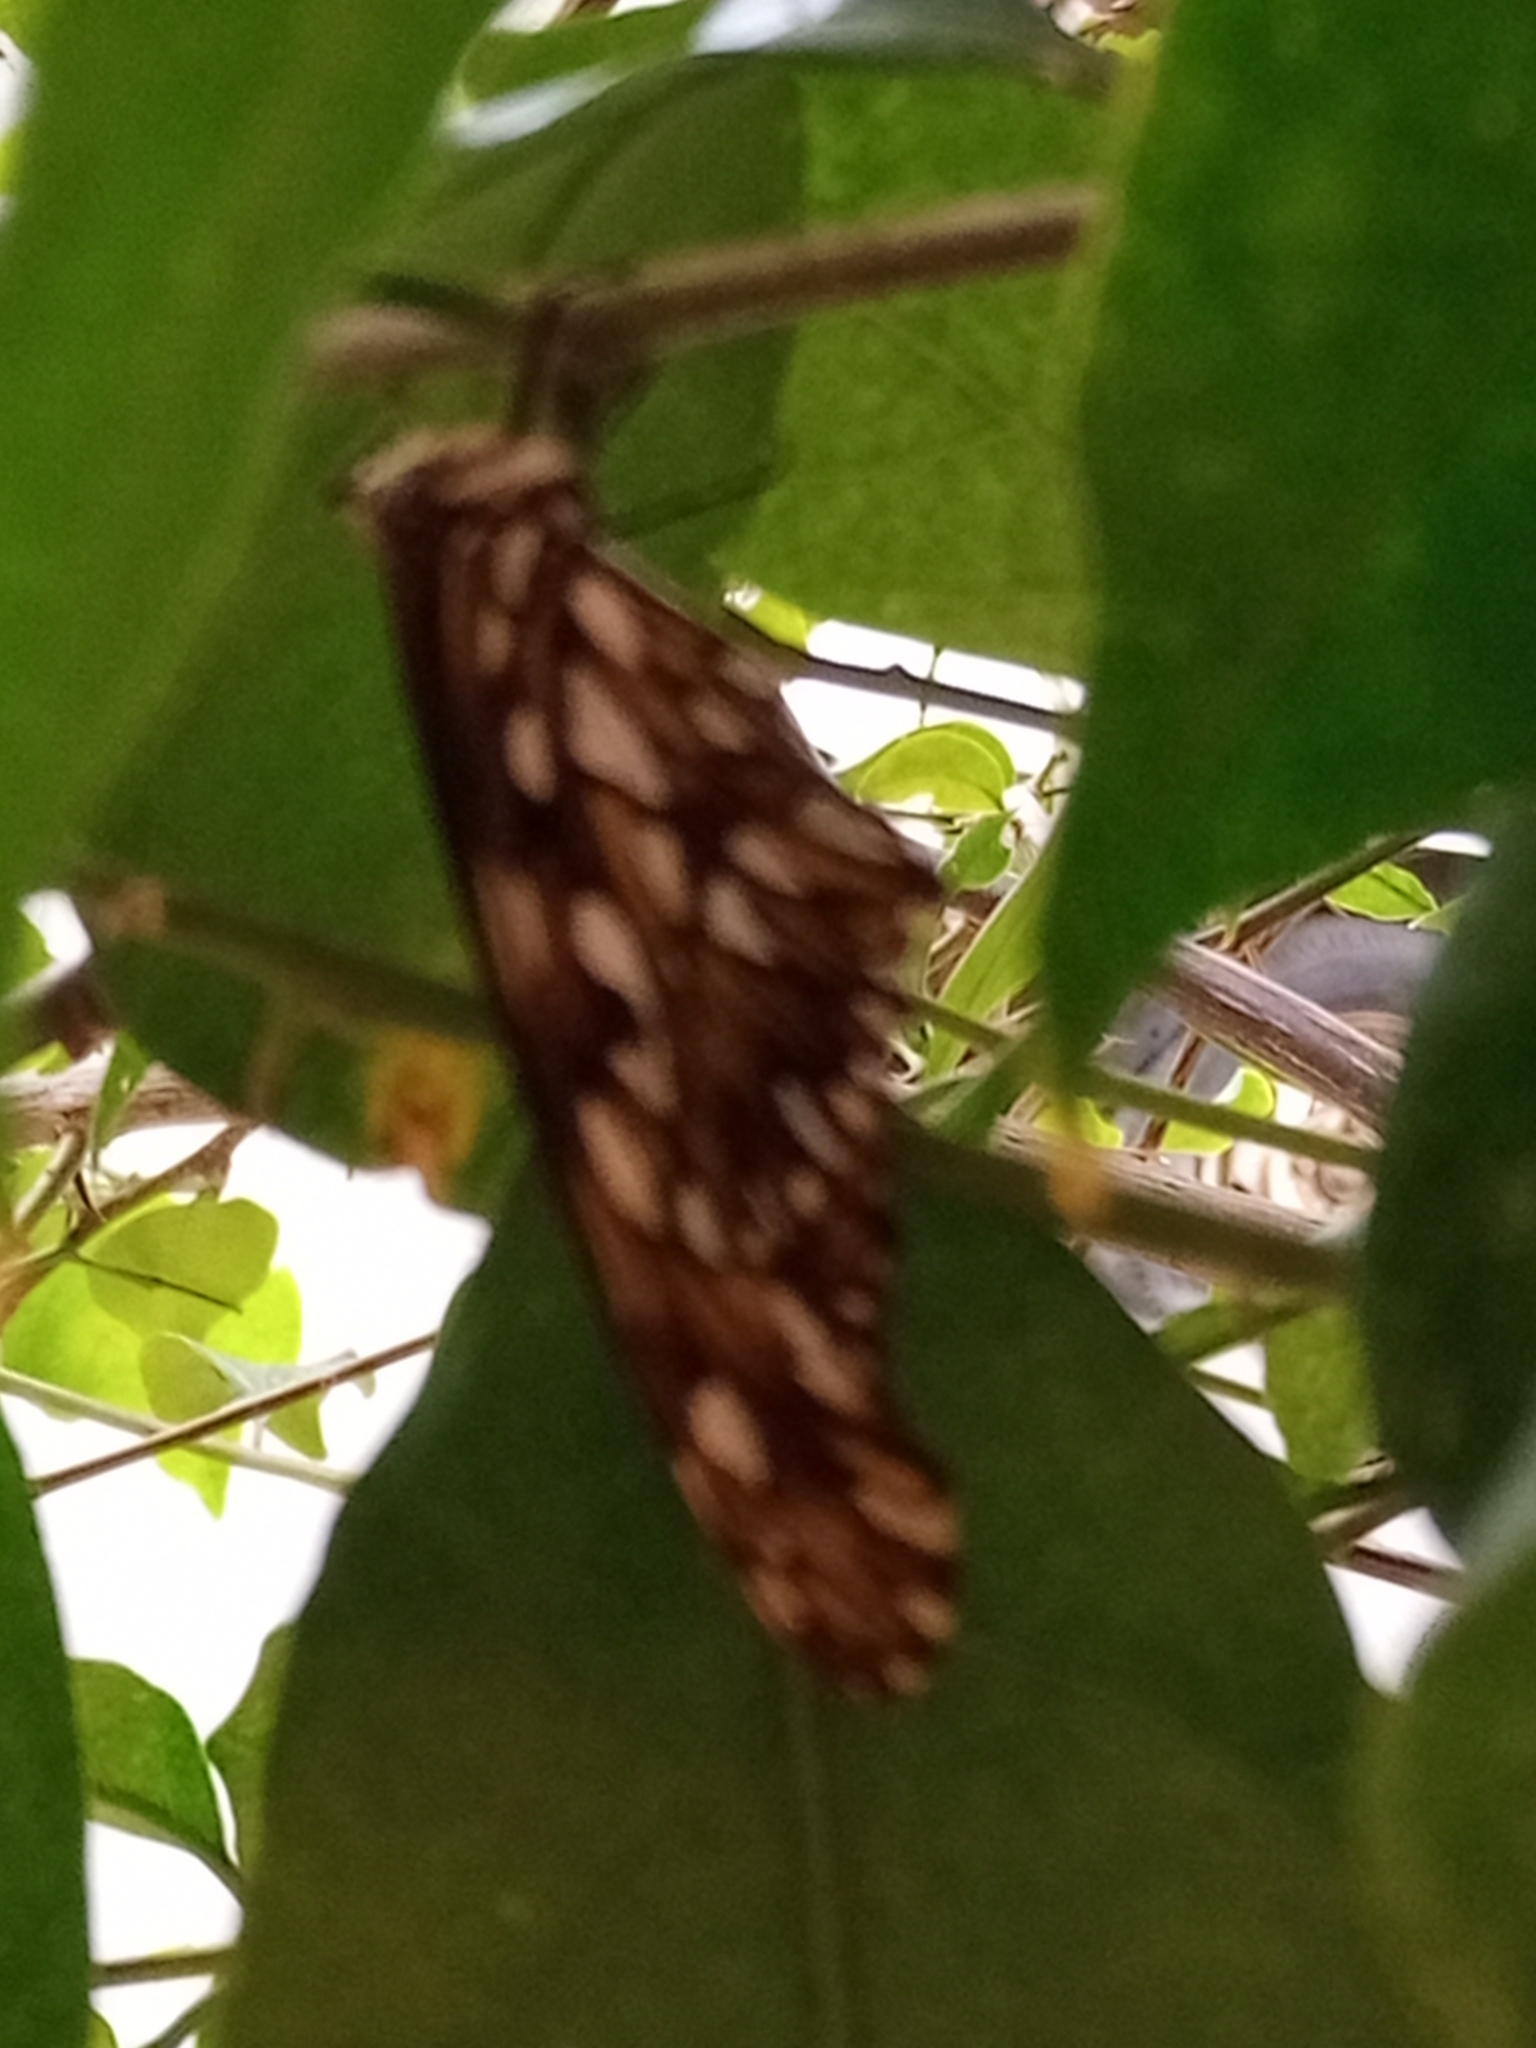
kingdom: Animalia
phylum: Arthropoda
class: Insecta
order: Lepidoptera
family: Nymphalidae
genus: Dione
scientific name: Dione juno
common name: Juno silverspot
